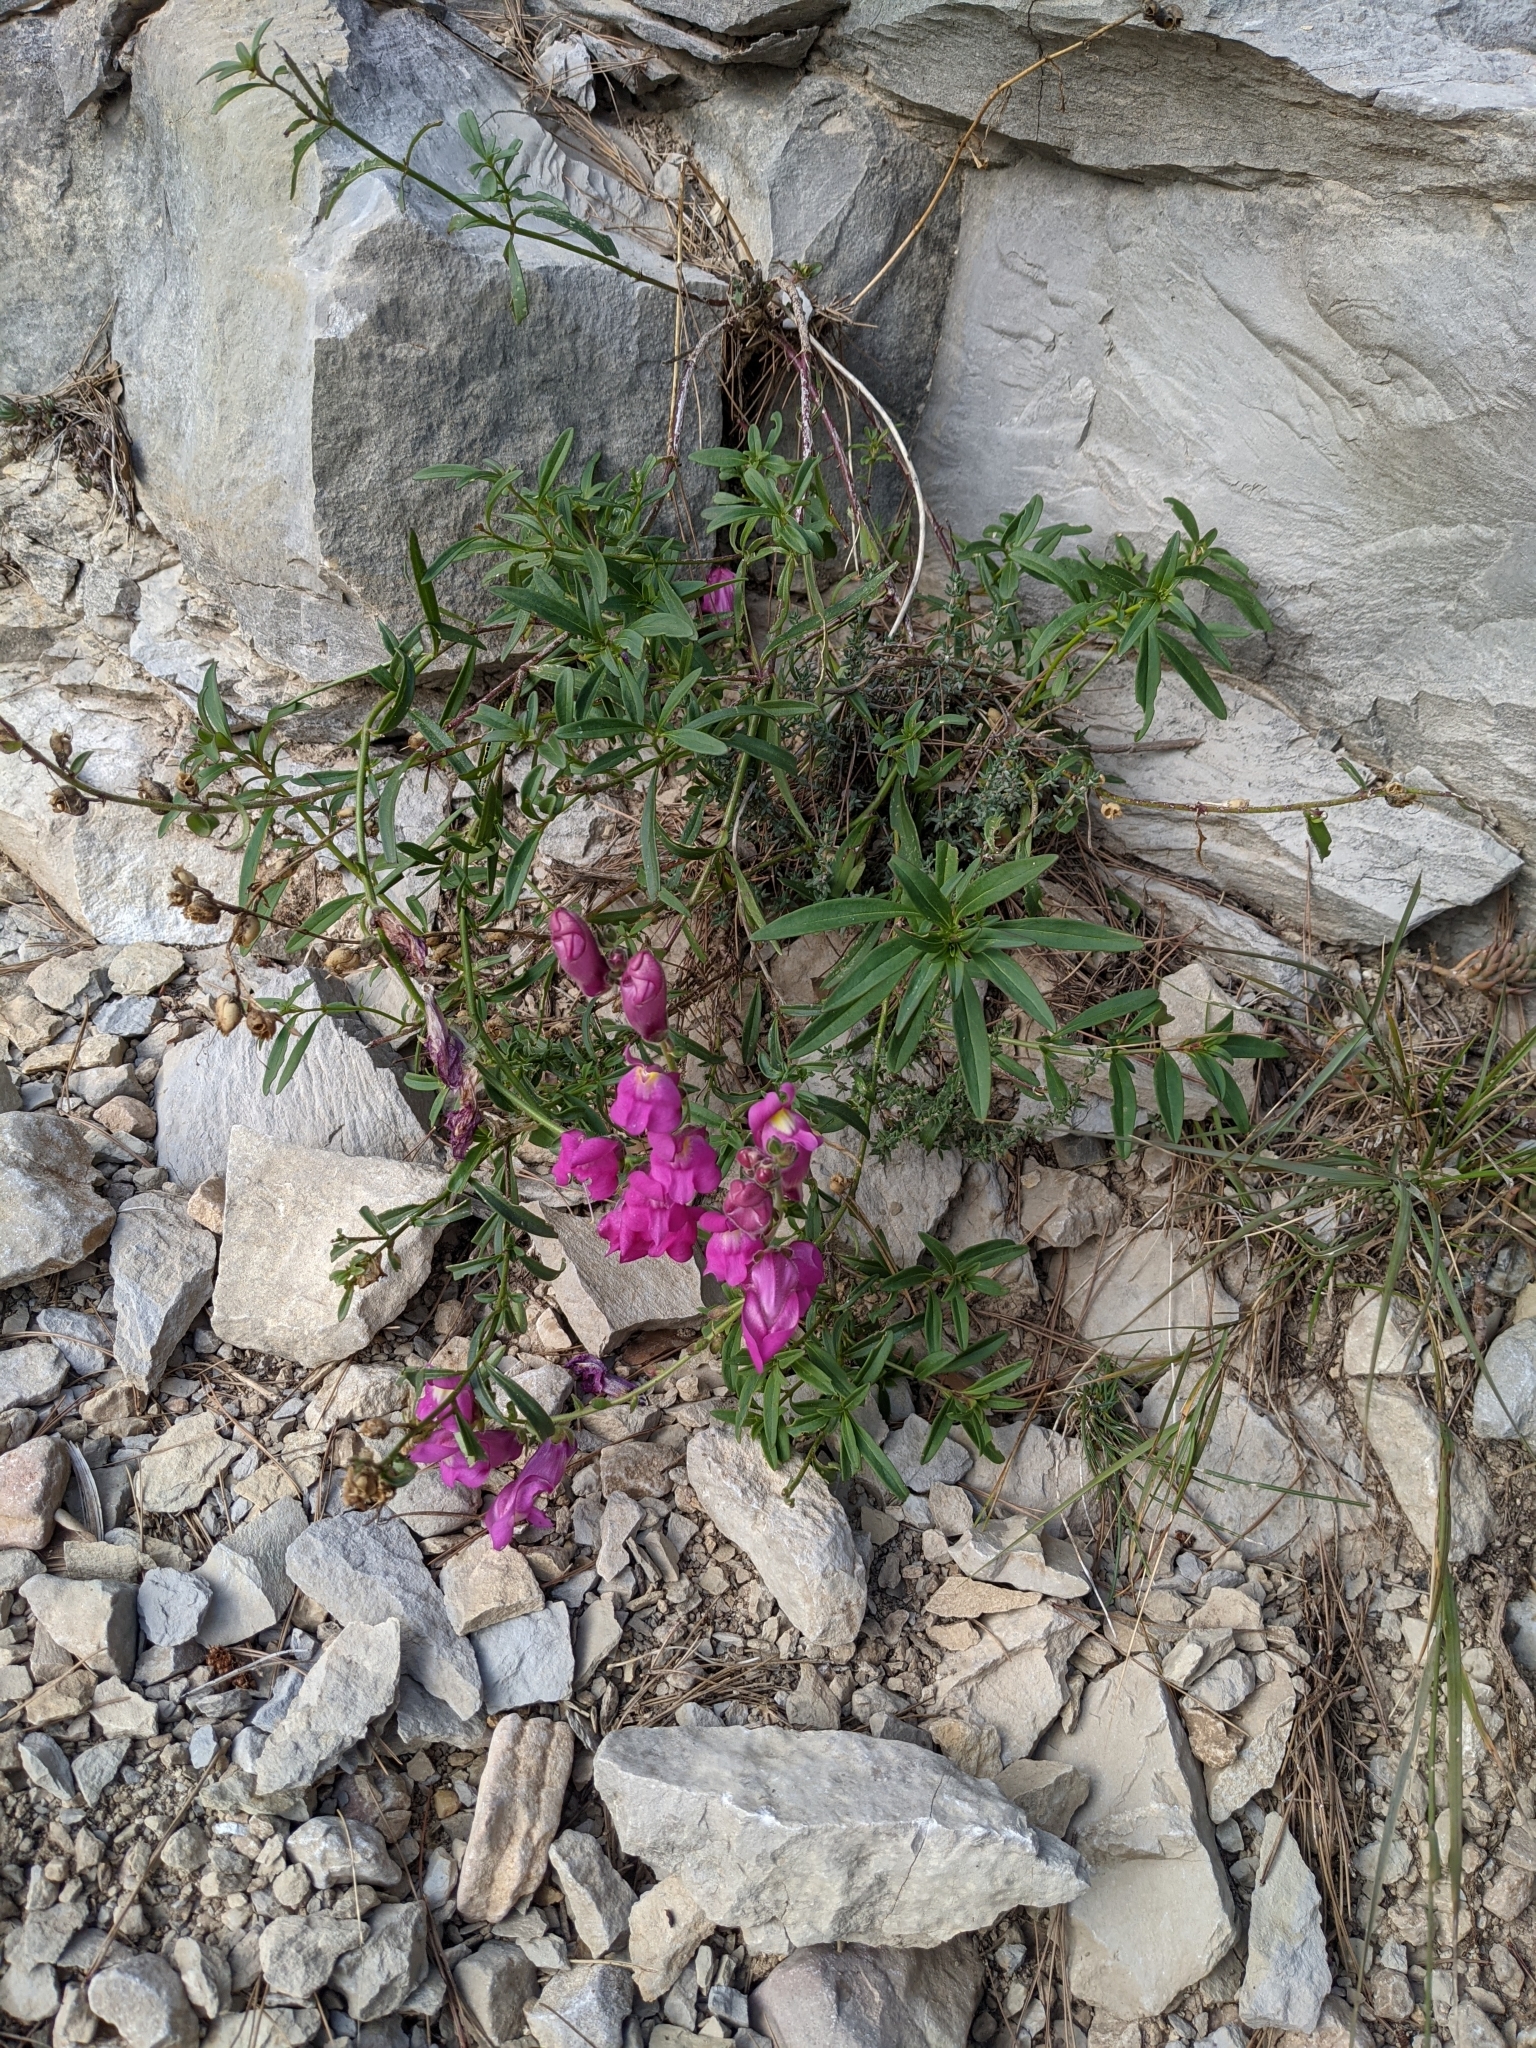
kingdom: Plantae
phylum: Tracheophyta
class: Magnoliopsida
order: Lamiales
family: Plantaginaceae
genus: Antirrhinum
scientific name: Antirrhinum majus
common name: Snapdragon
